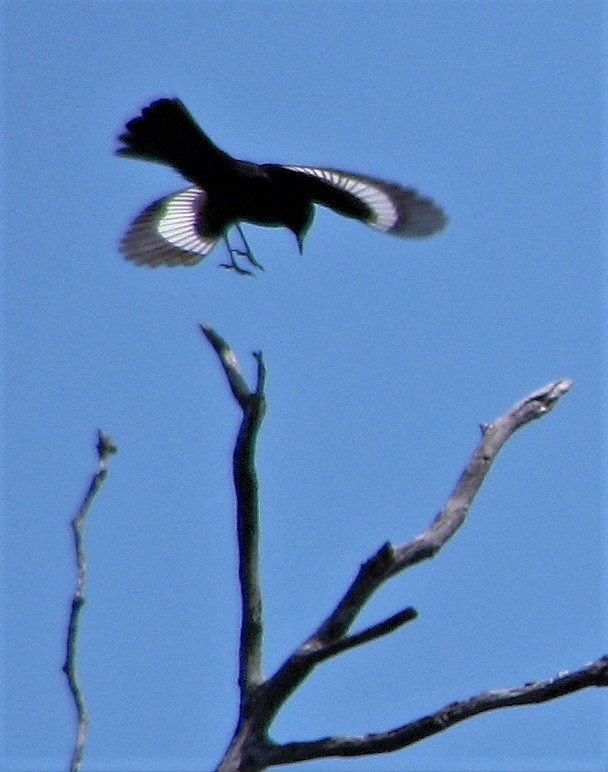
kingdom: Animalia
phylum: Chordata
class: Aves
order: Passeriformes
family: Tyrannidae
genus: Knipolegus
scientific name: Knipolegus aterrimus
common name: White-winged black tyrant
